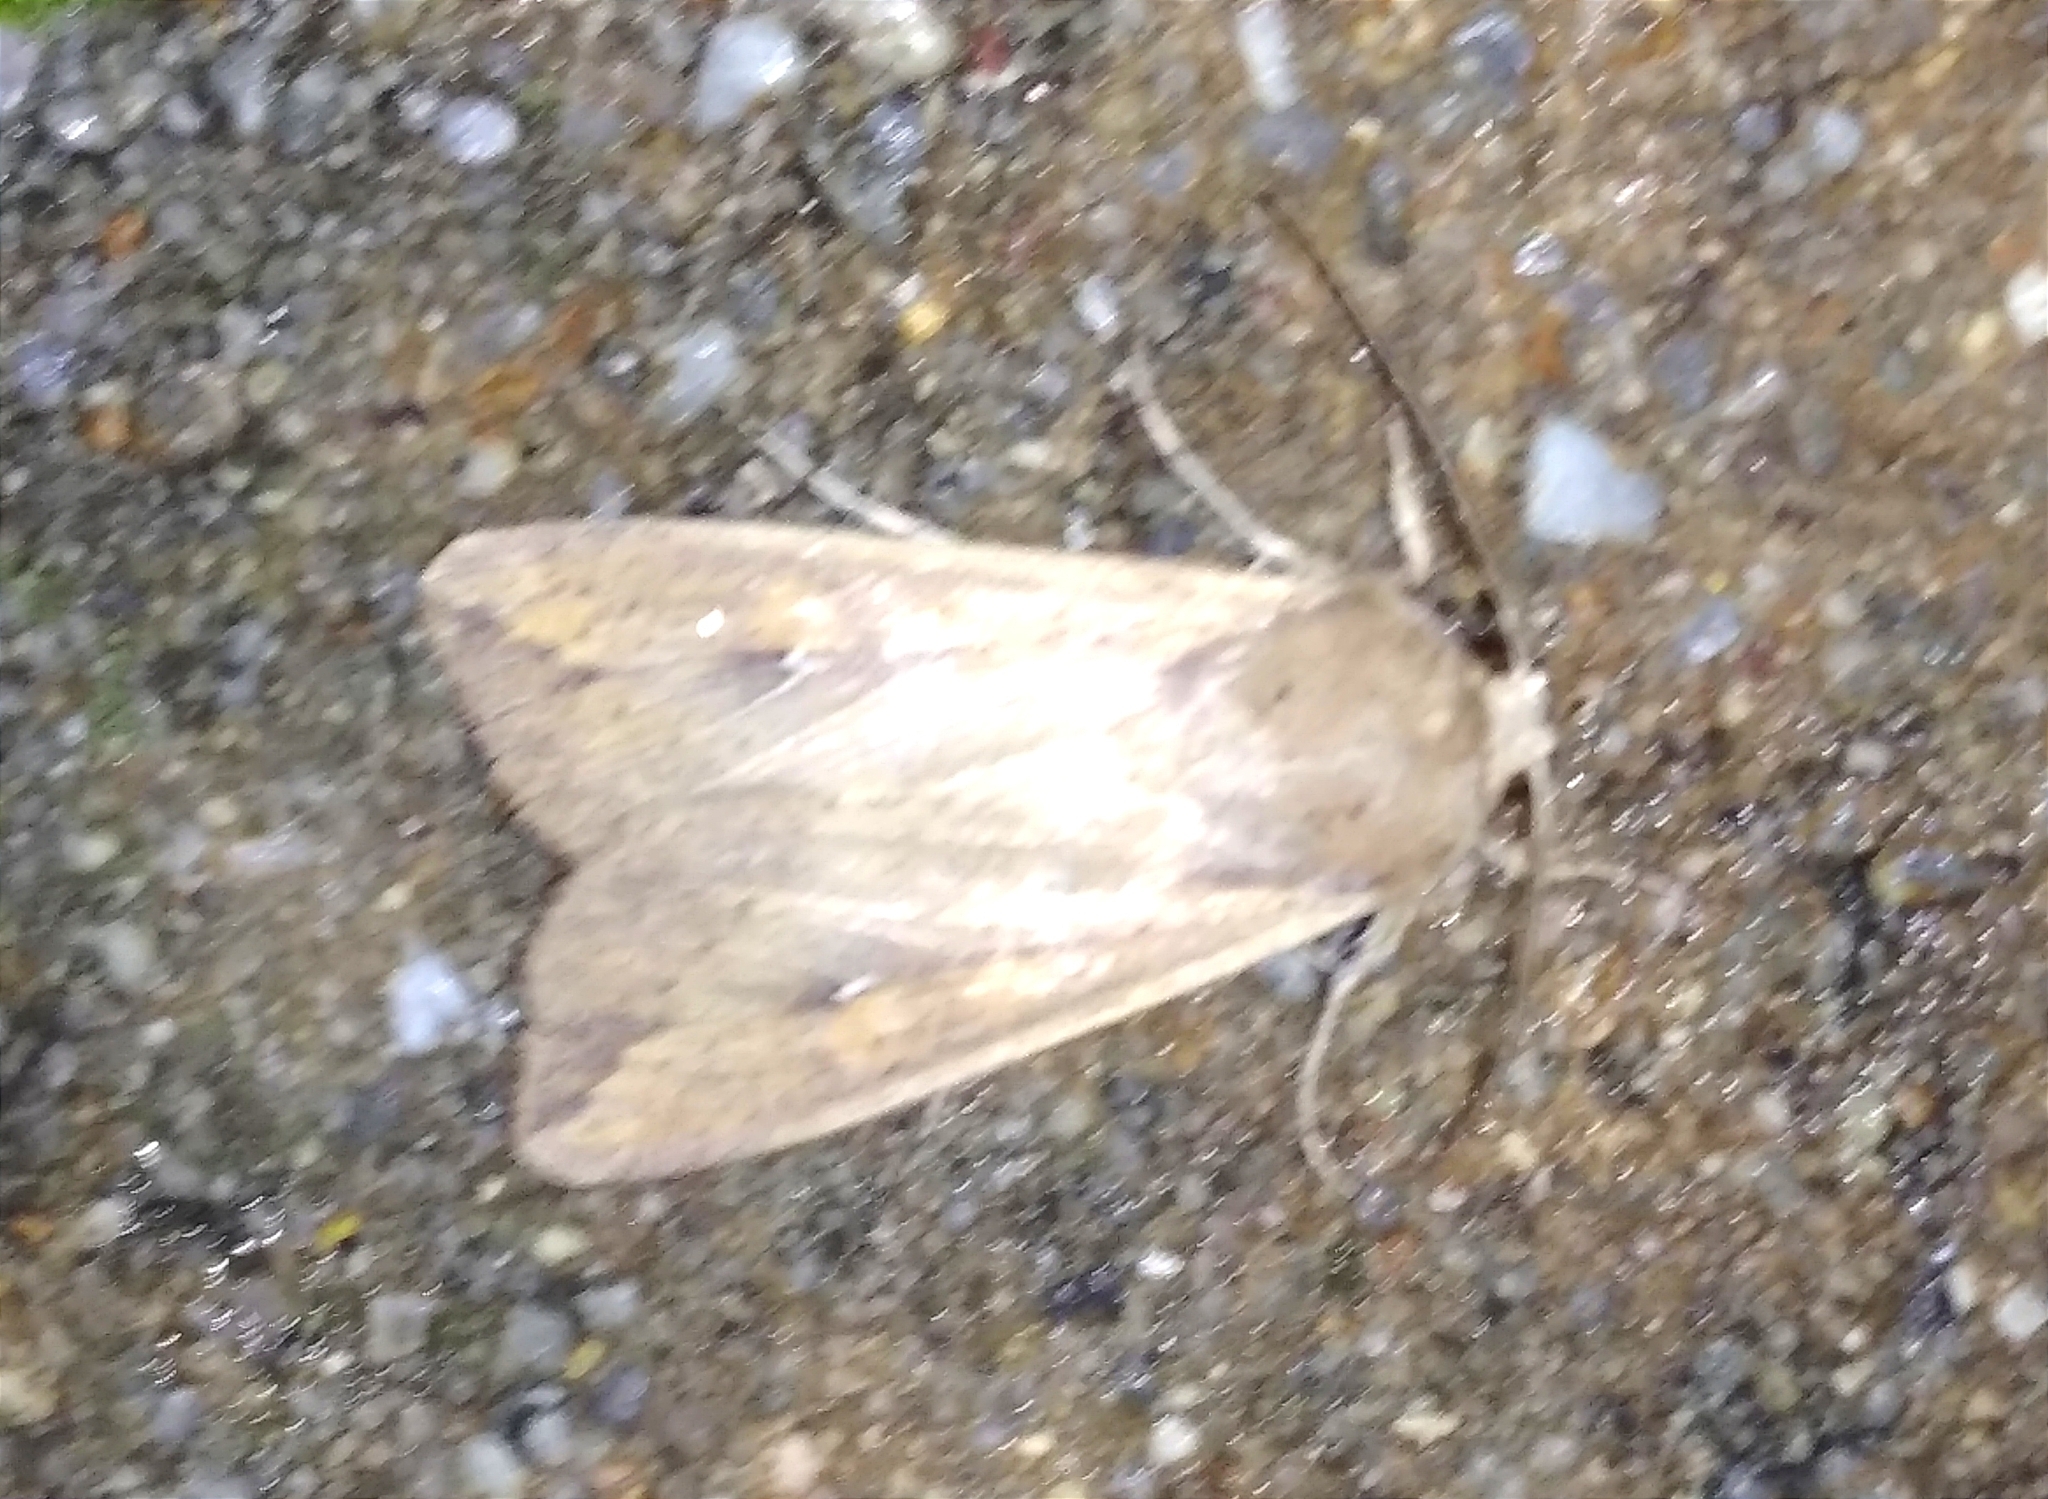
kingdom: Animalia
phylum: Arthropoda
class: Insecta
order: Lepidoptera
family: Noctuidae
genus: Mythimna
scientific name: Mythimna unipuncta
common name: White-speck
